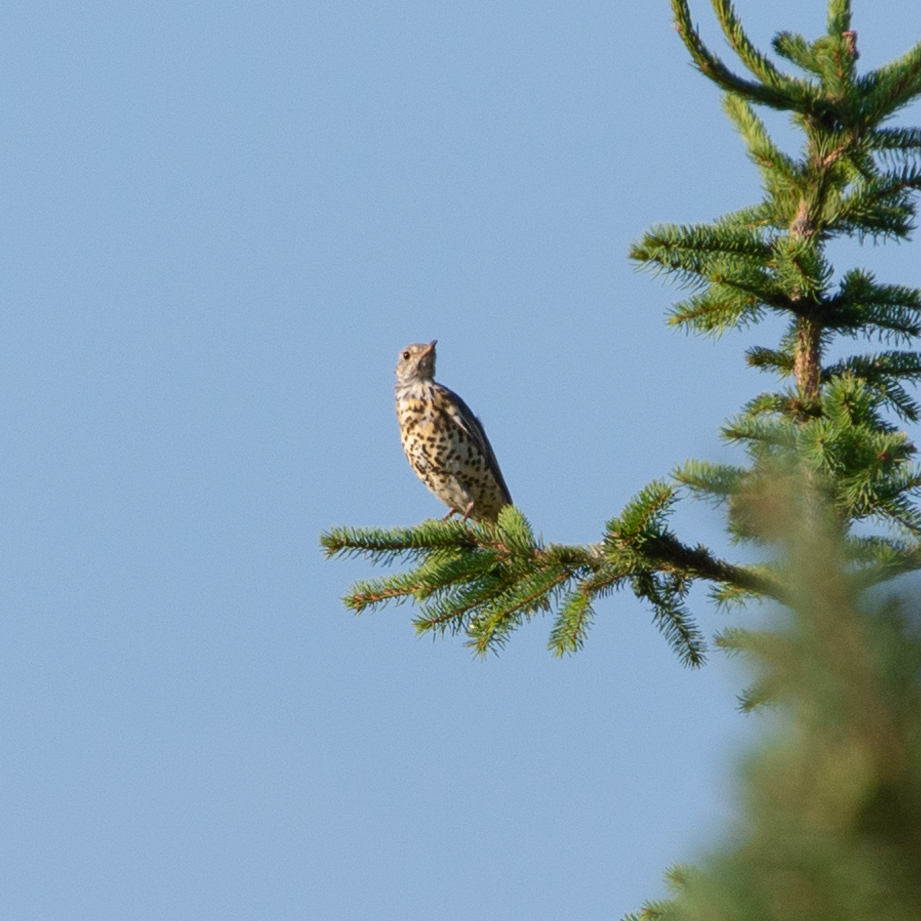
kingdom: Animalia
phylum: Chordata
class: Aves
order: Passeriformes
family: Turdidae
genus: Turdus
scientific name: Turdus viscivorus
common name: Mistle thrush
